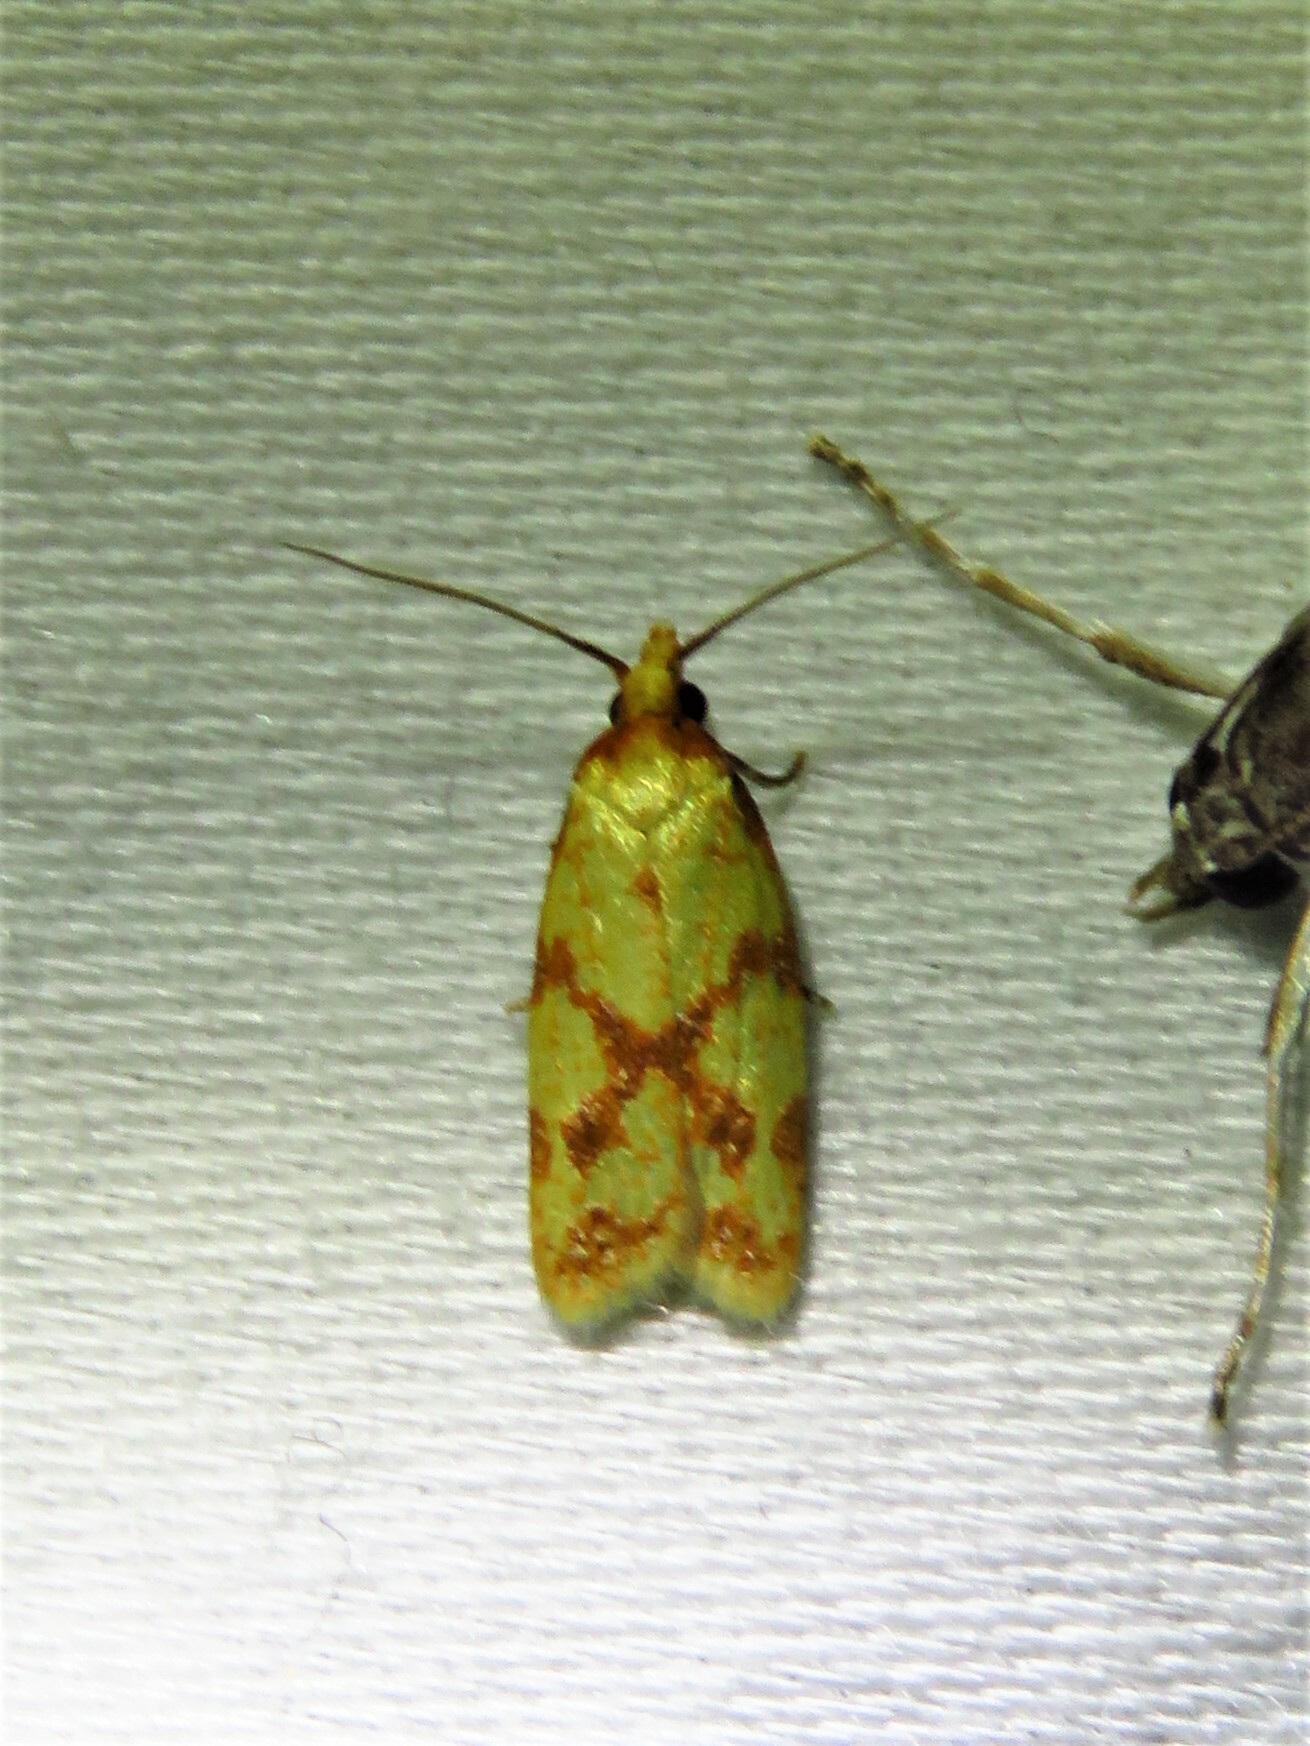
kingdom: Animalia
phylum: Arthropoda
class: Insecta
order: Lepidoptera
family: Tortricidae
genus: Sparganothis
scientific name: Sparganothis sulfureana
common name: Sparganothis fruitworm moth
